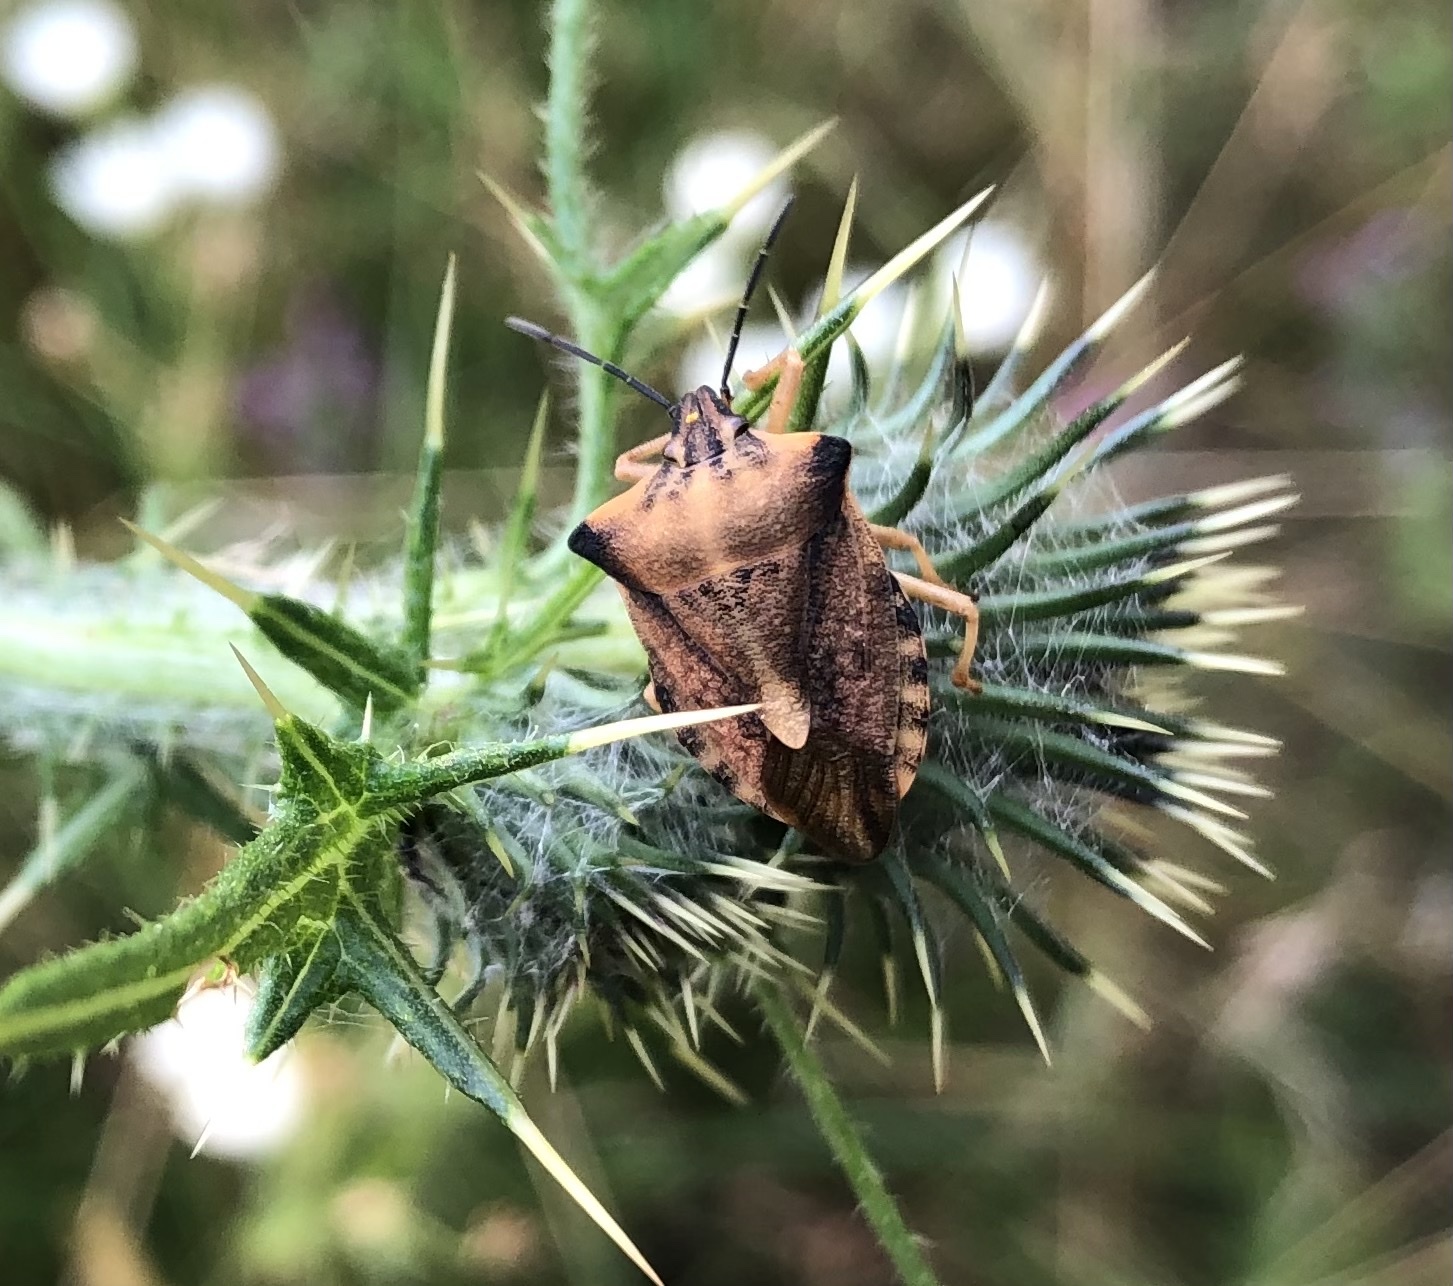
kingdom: Animalia
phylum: Arthropoda
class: Insecta
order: Hemiptera
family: Pentatomidae
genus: Carpocoris
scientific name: Carpocoris fuscispinus
